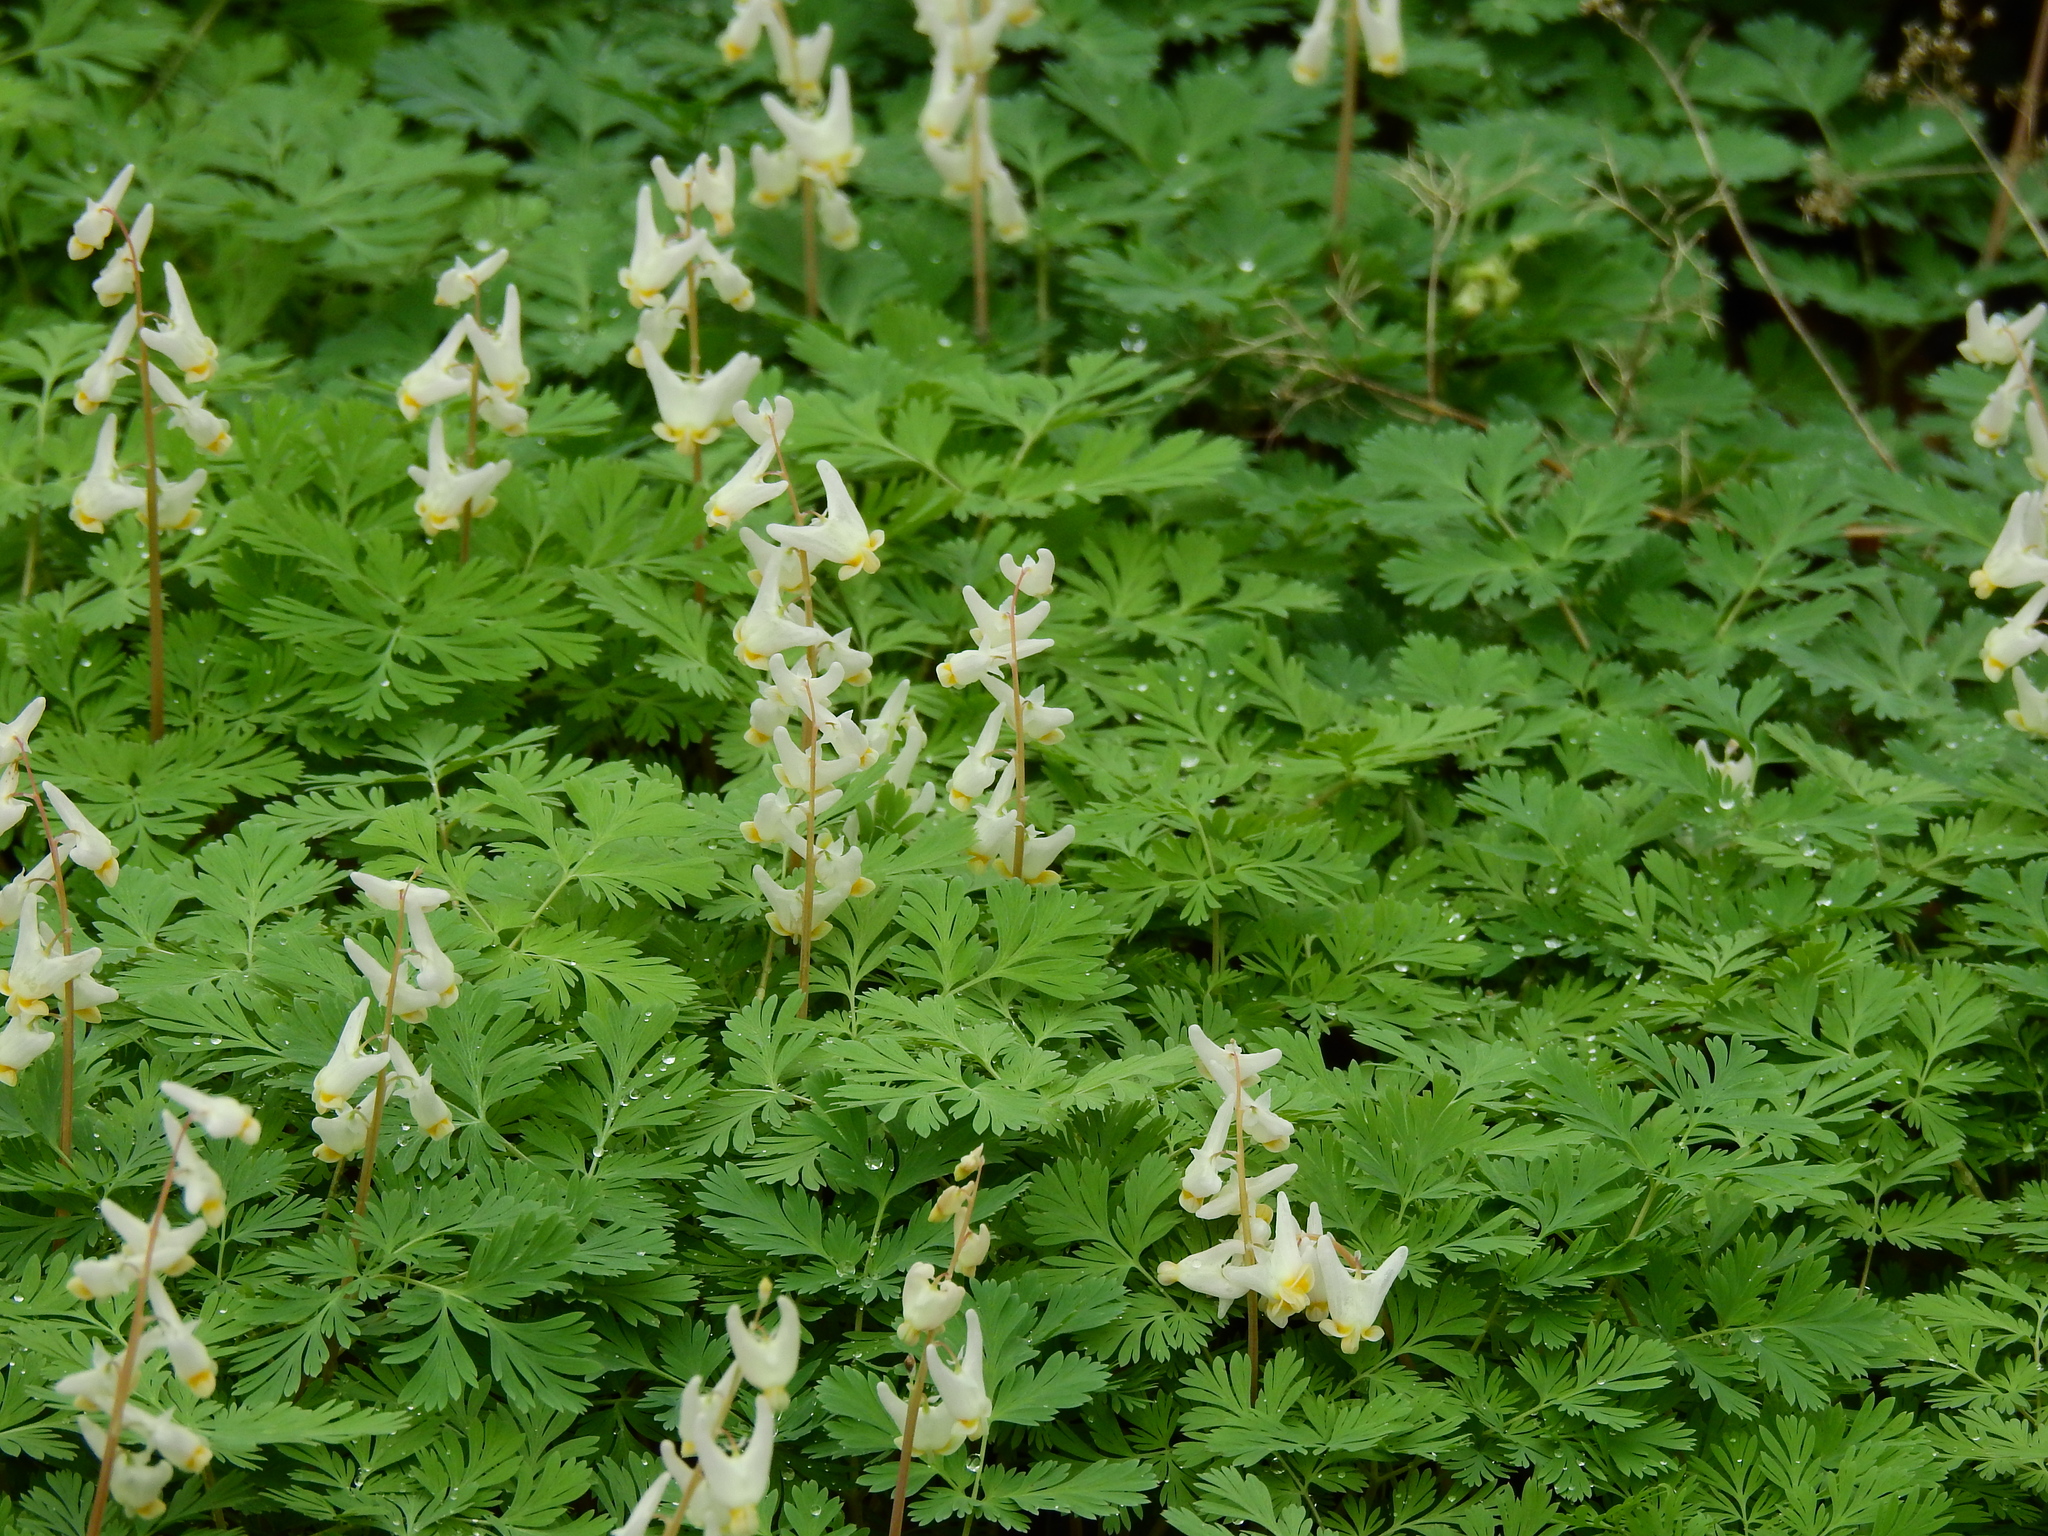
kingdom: Plantae
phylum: Tracheophyta
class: Magnoliopsida
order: Ranunculales
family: Papaveraceae
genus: Dicentra
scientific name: Dicentra cucullaria
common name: Dutchman's breeches
